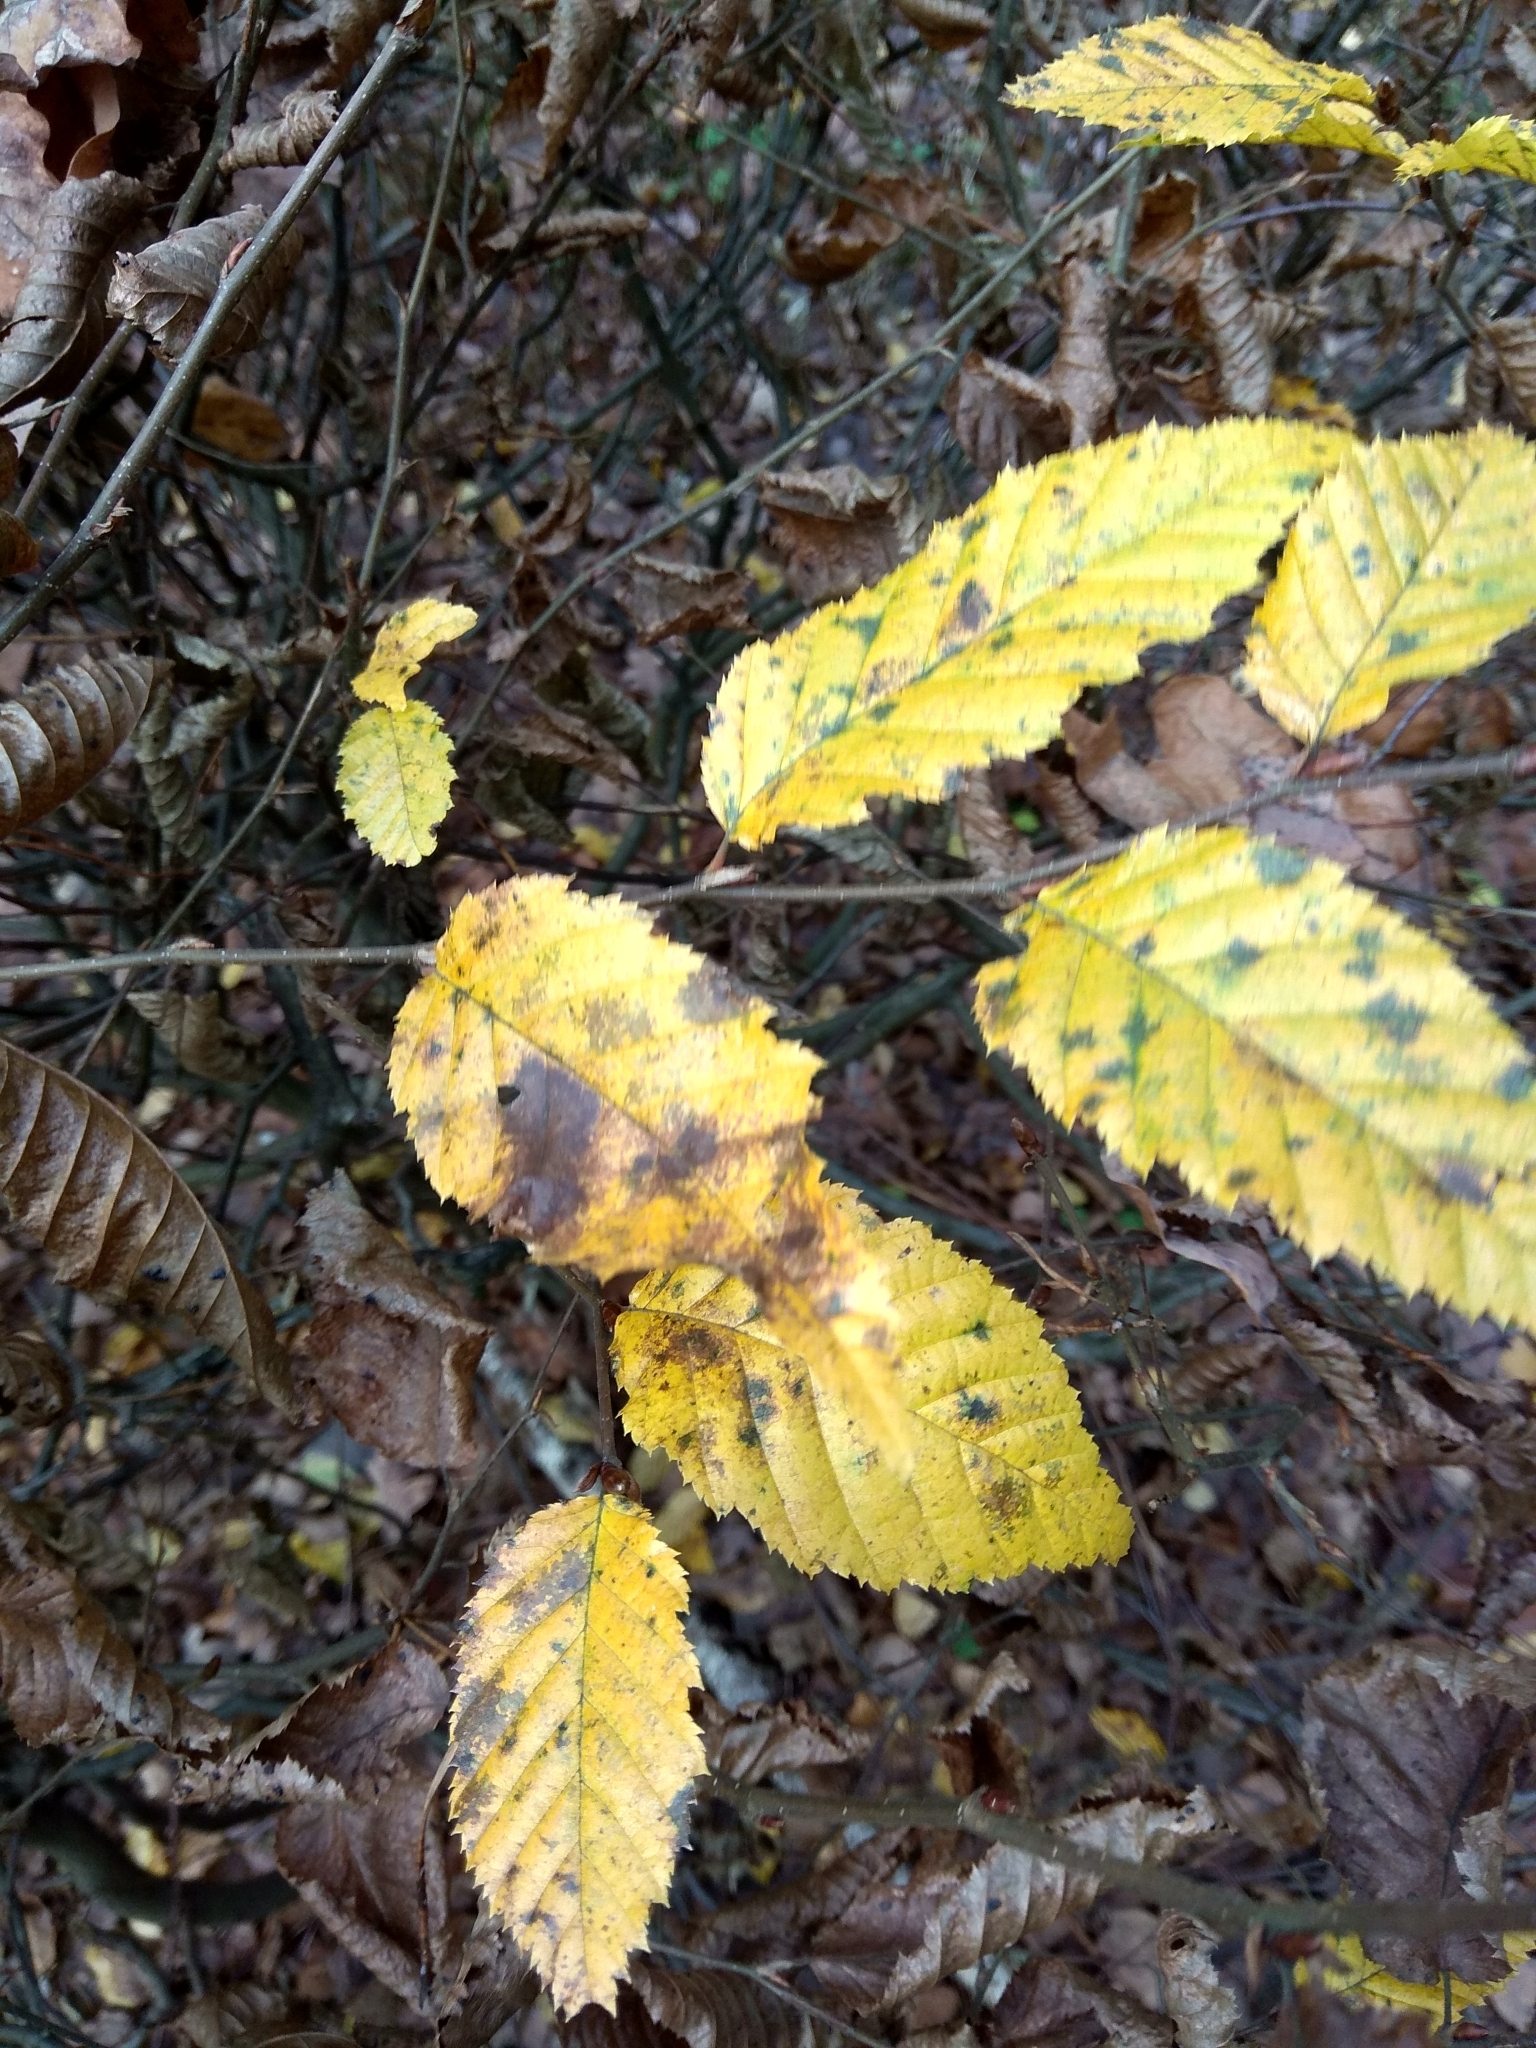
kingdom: Plantae
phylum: Tracheophyta
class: Magnoliopsida
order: Fagales
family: Betulaceae
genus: Carpinus
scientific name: Carpinus betulus
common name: Hornbeam
